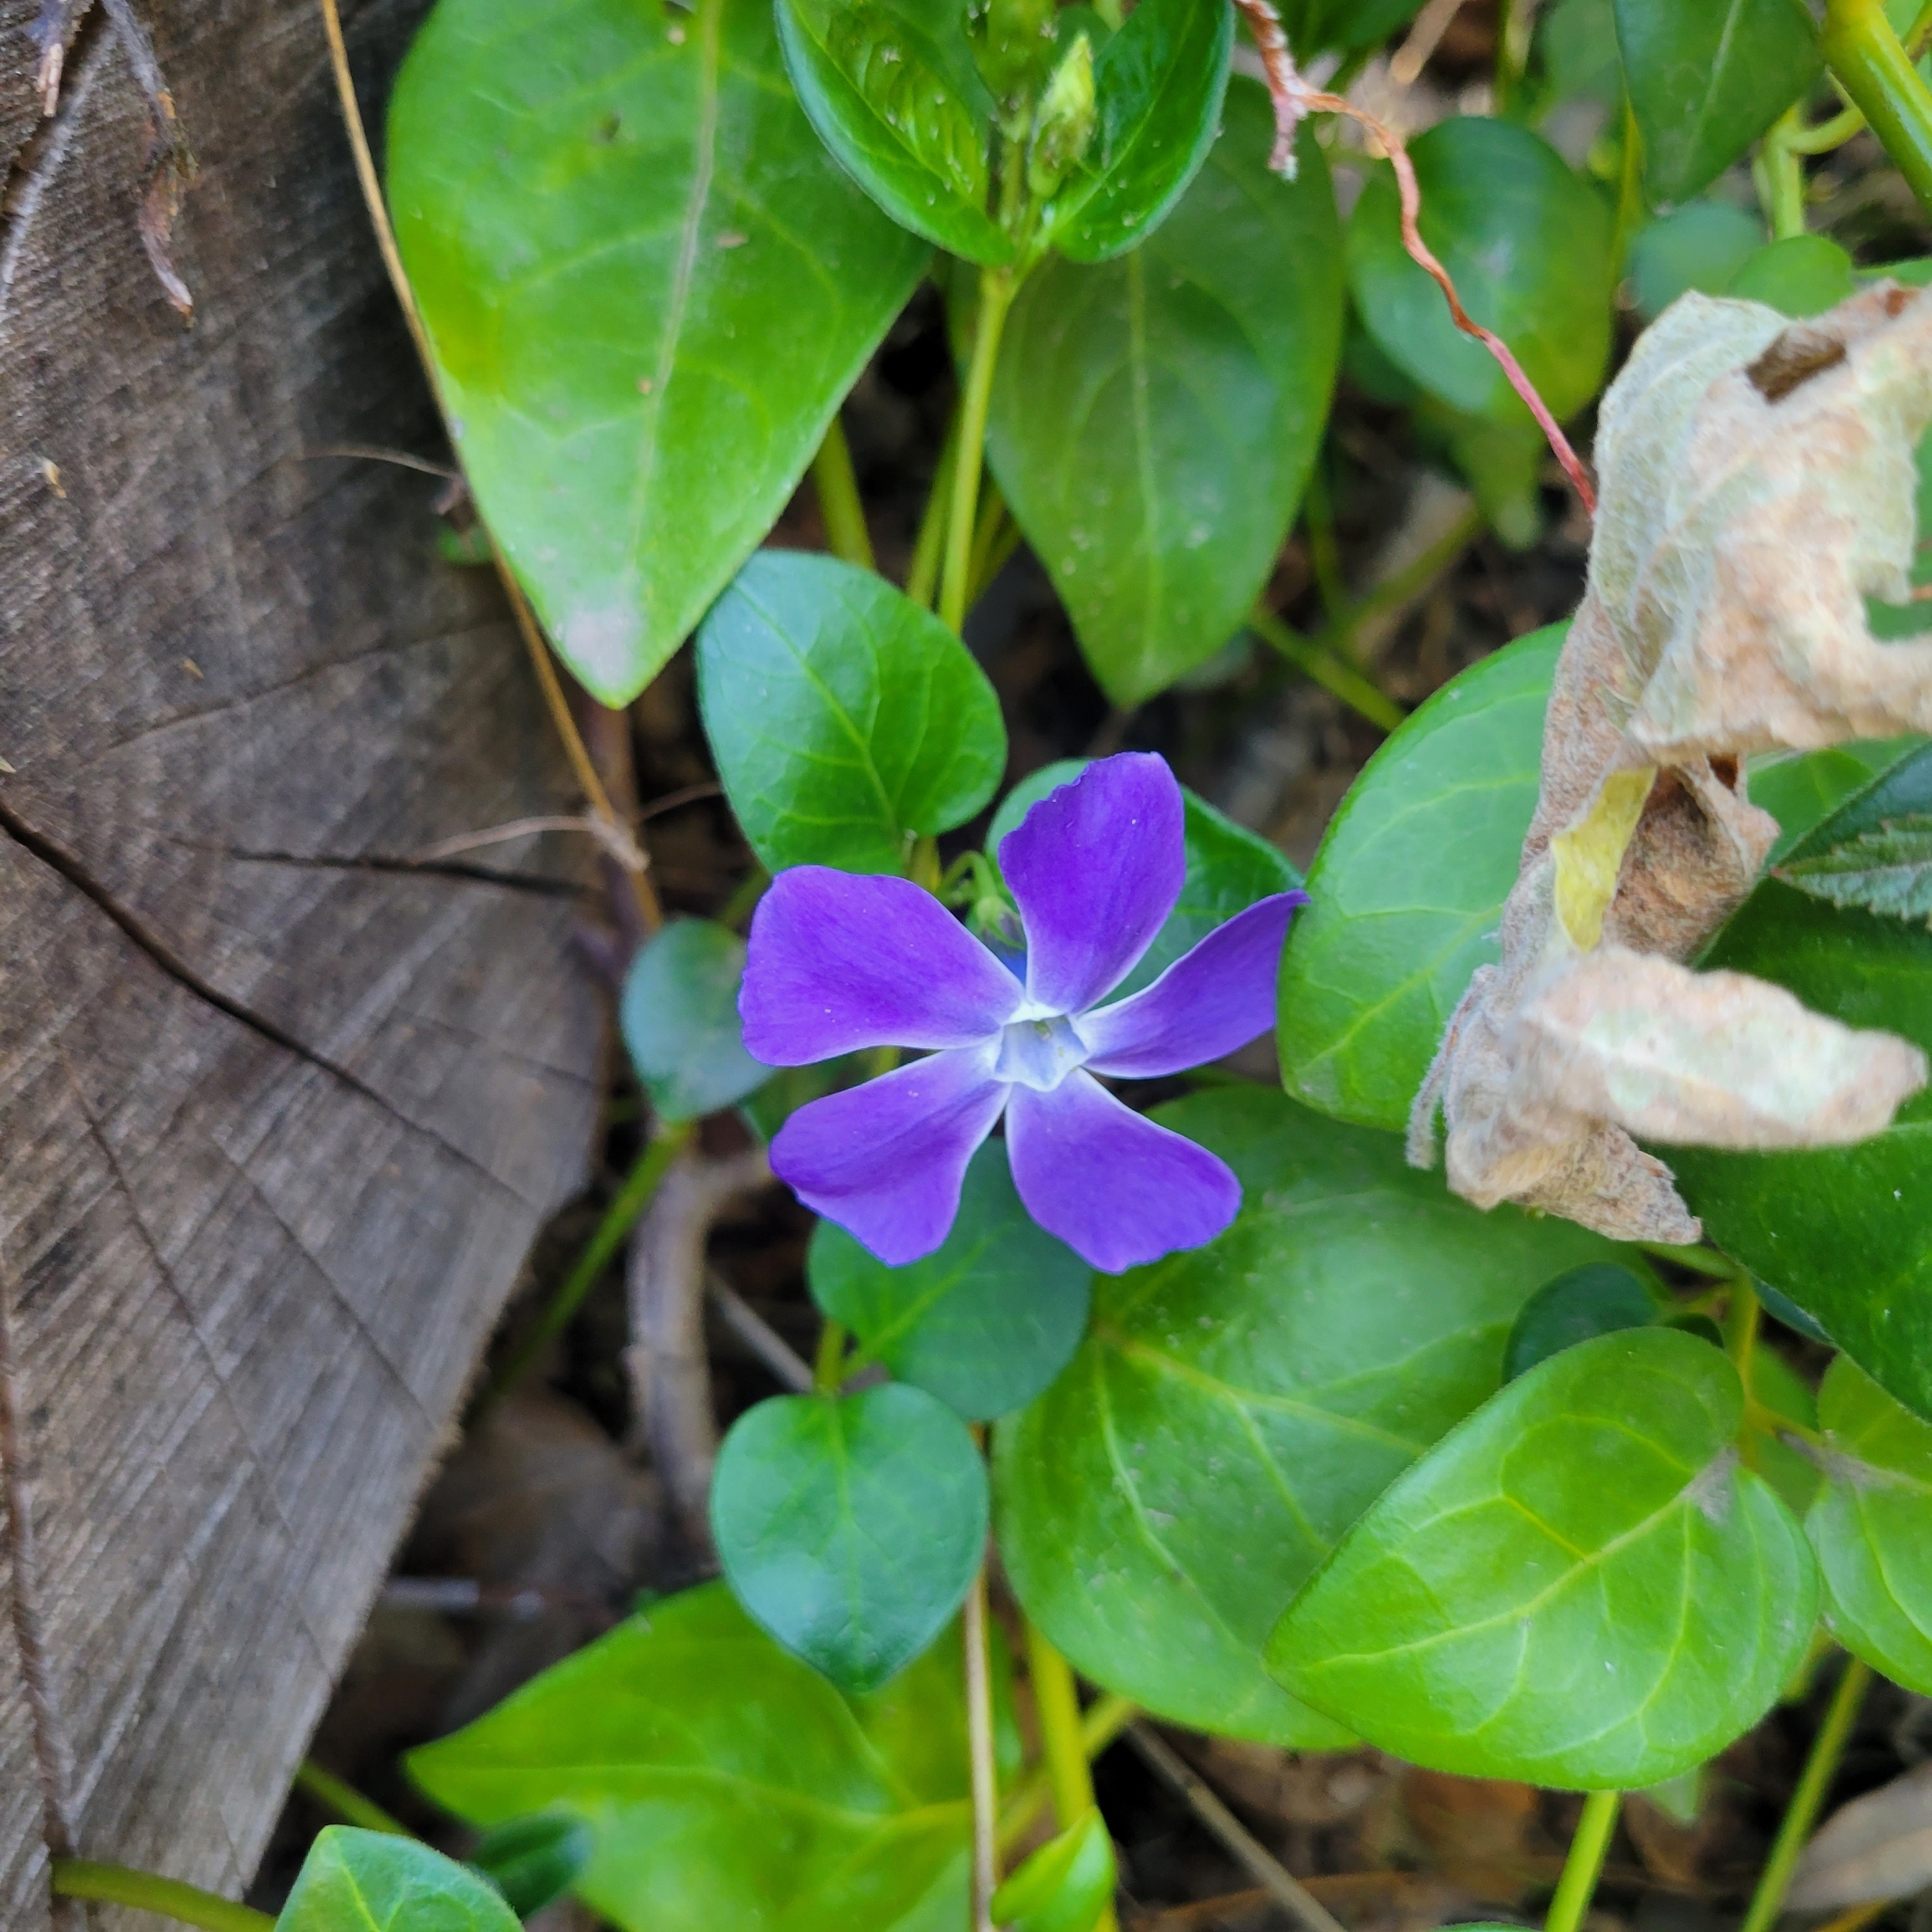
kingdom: Plantae
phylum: Tracheophyta
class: Magnoliopsida
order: Gentianales
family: Apocynaceae
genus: Vinca
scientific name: Vinca major
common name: Greater periwinkle
